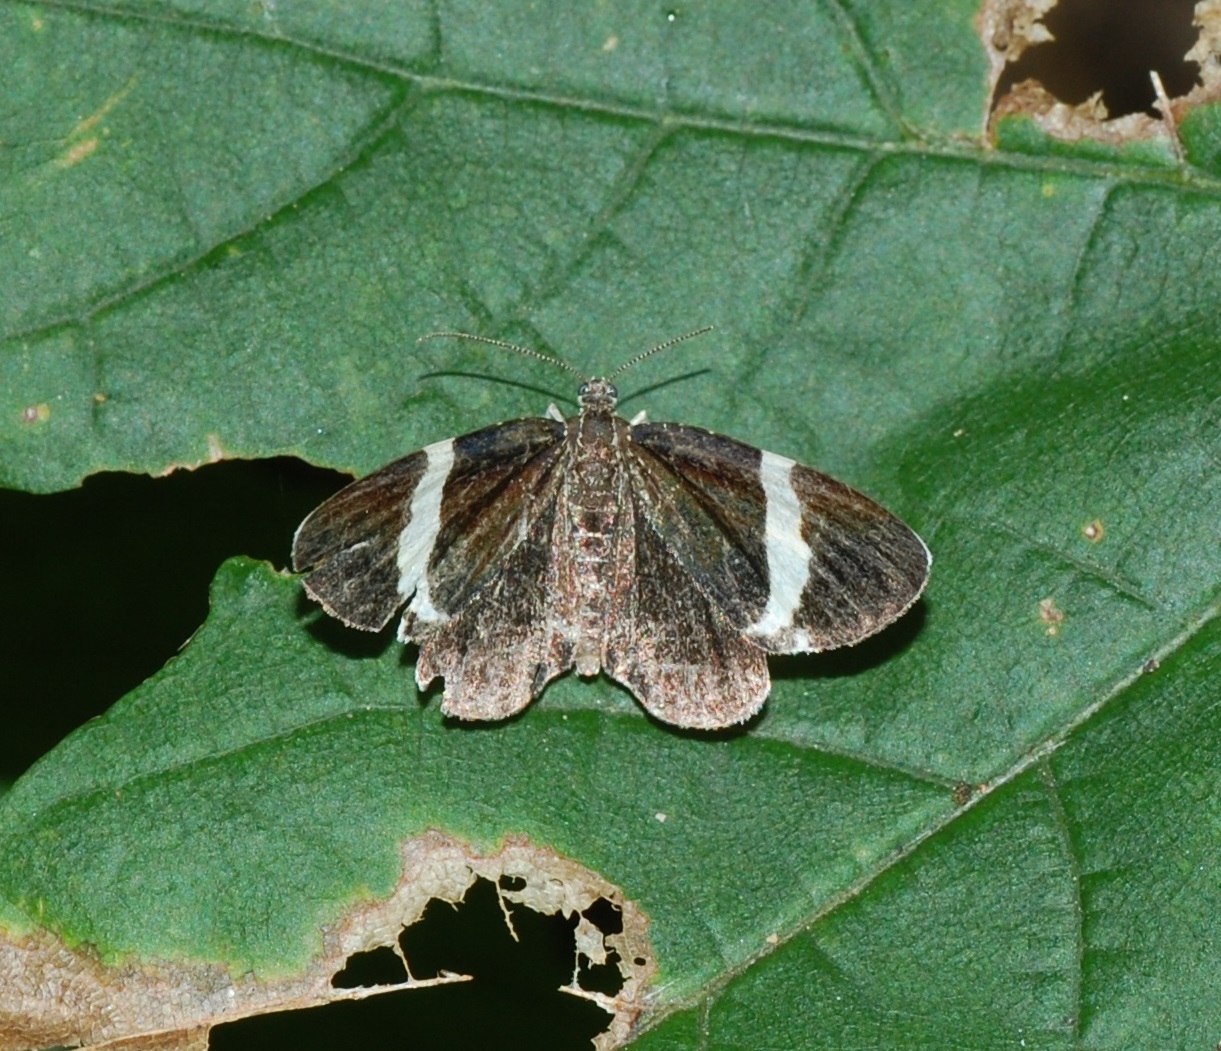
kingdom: Animalia
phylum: Arthropoda
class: Insecta
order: Lepidoptera
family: Geometridae
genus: Trichodezia
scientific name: Trichodezia albovittata
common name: White striped black
